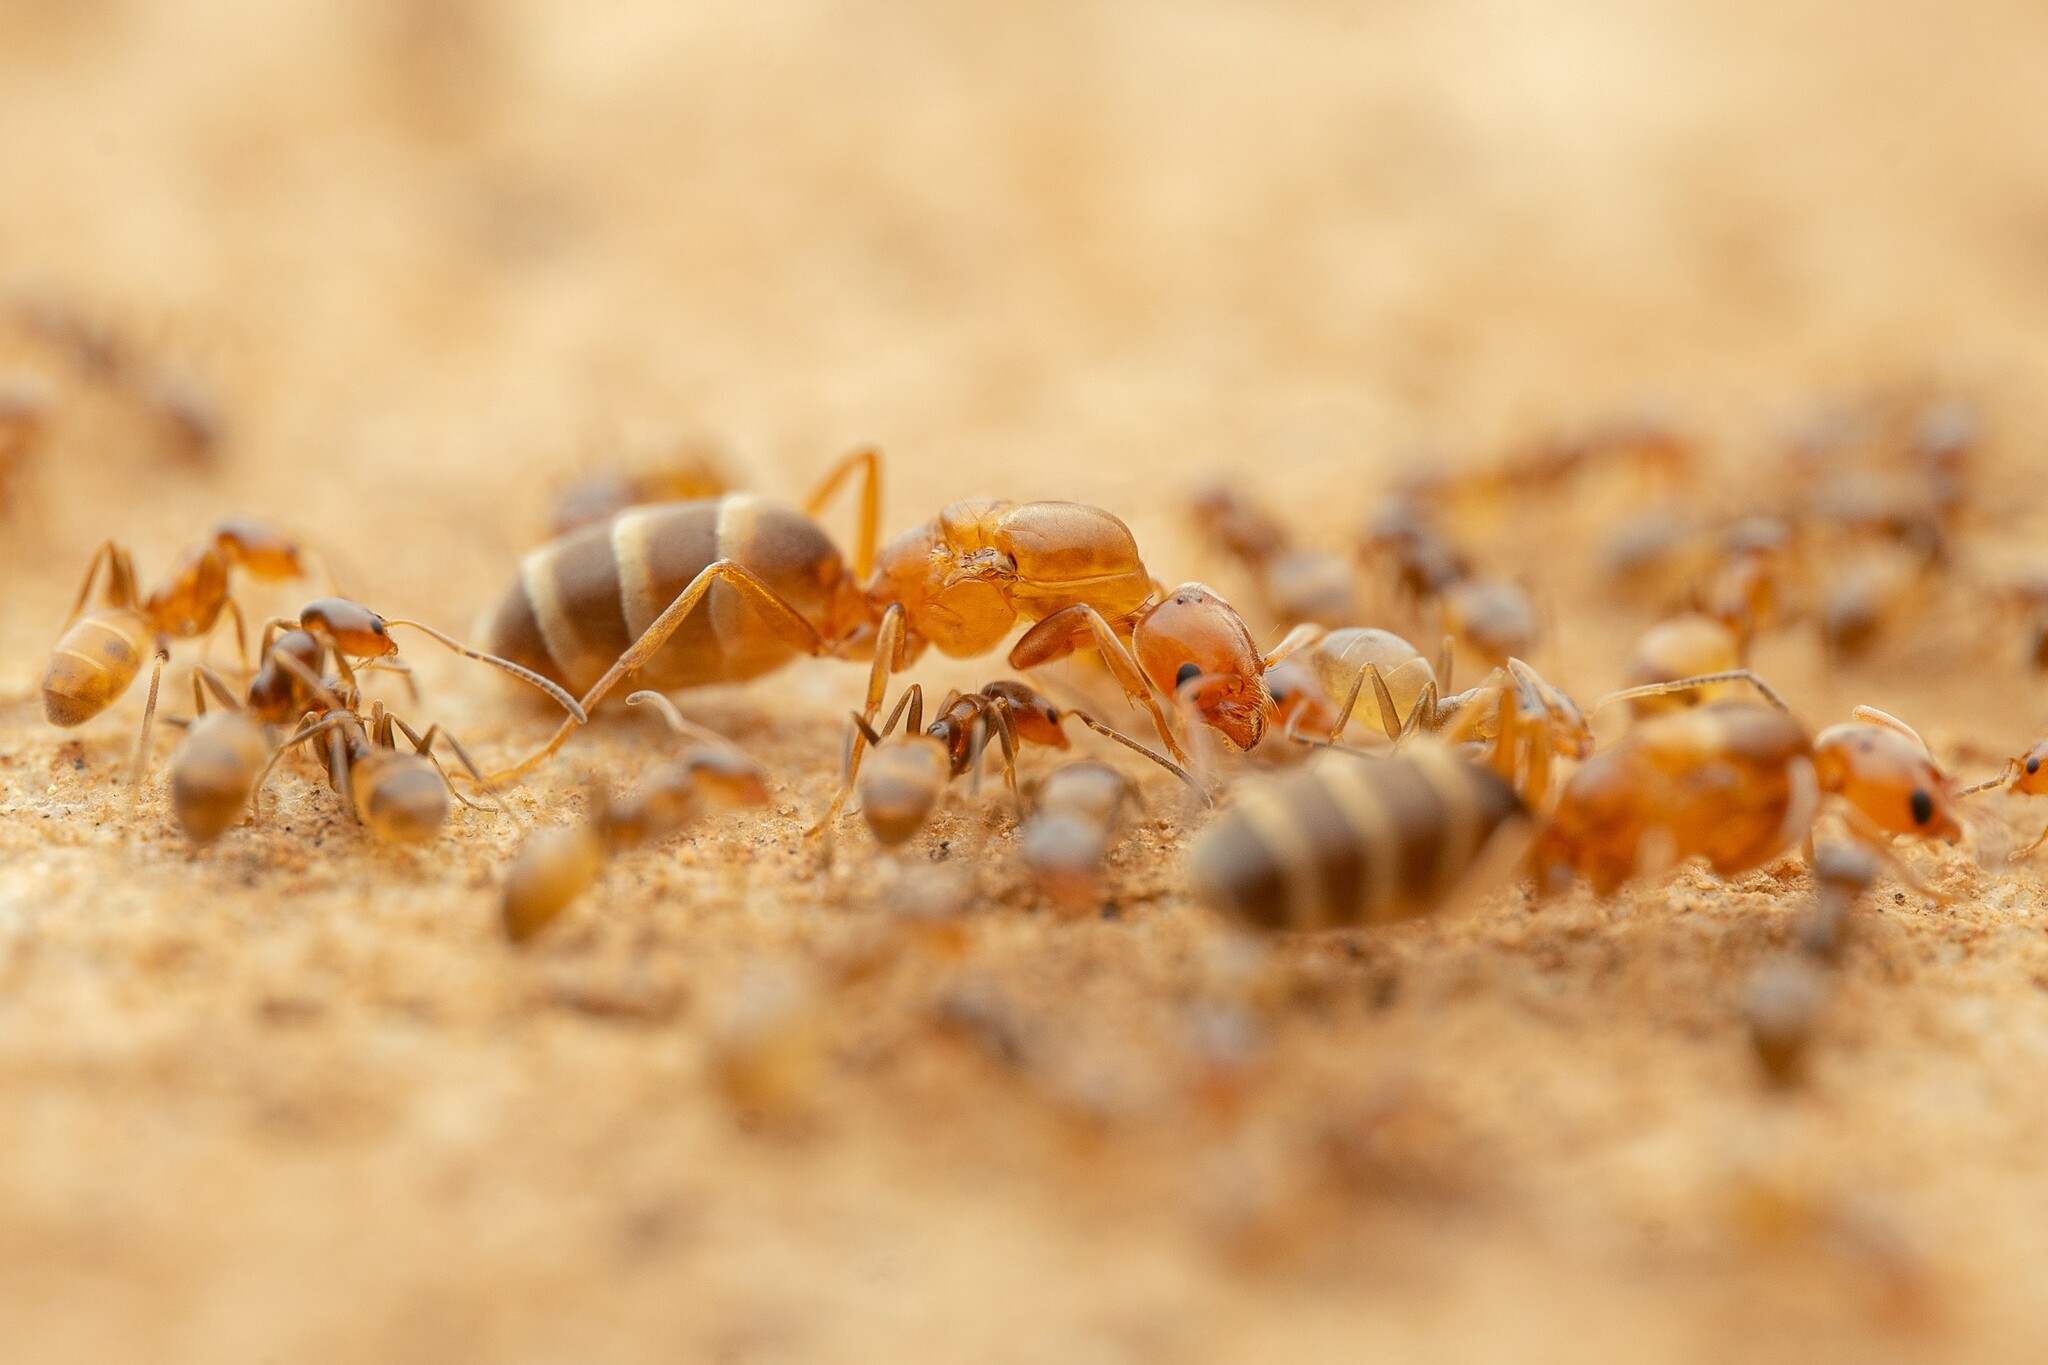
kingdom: Animalia
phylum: Arthropoda
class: Insecta
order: Hymenoptera
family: Formicidae
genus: Forelius
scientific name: Forelius pruinosus
